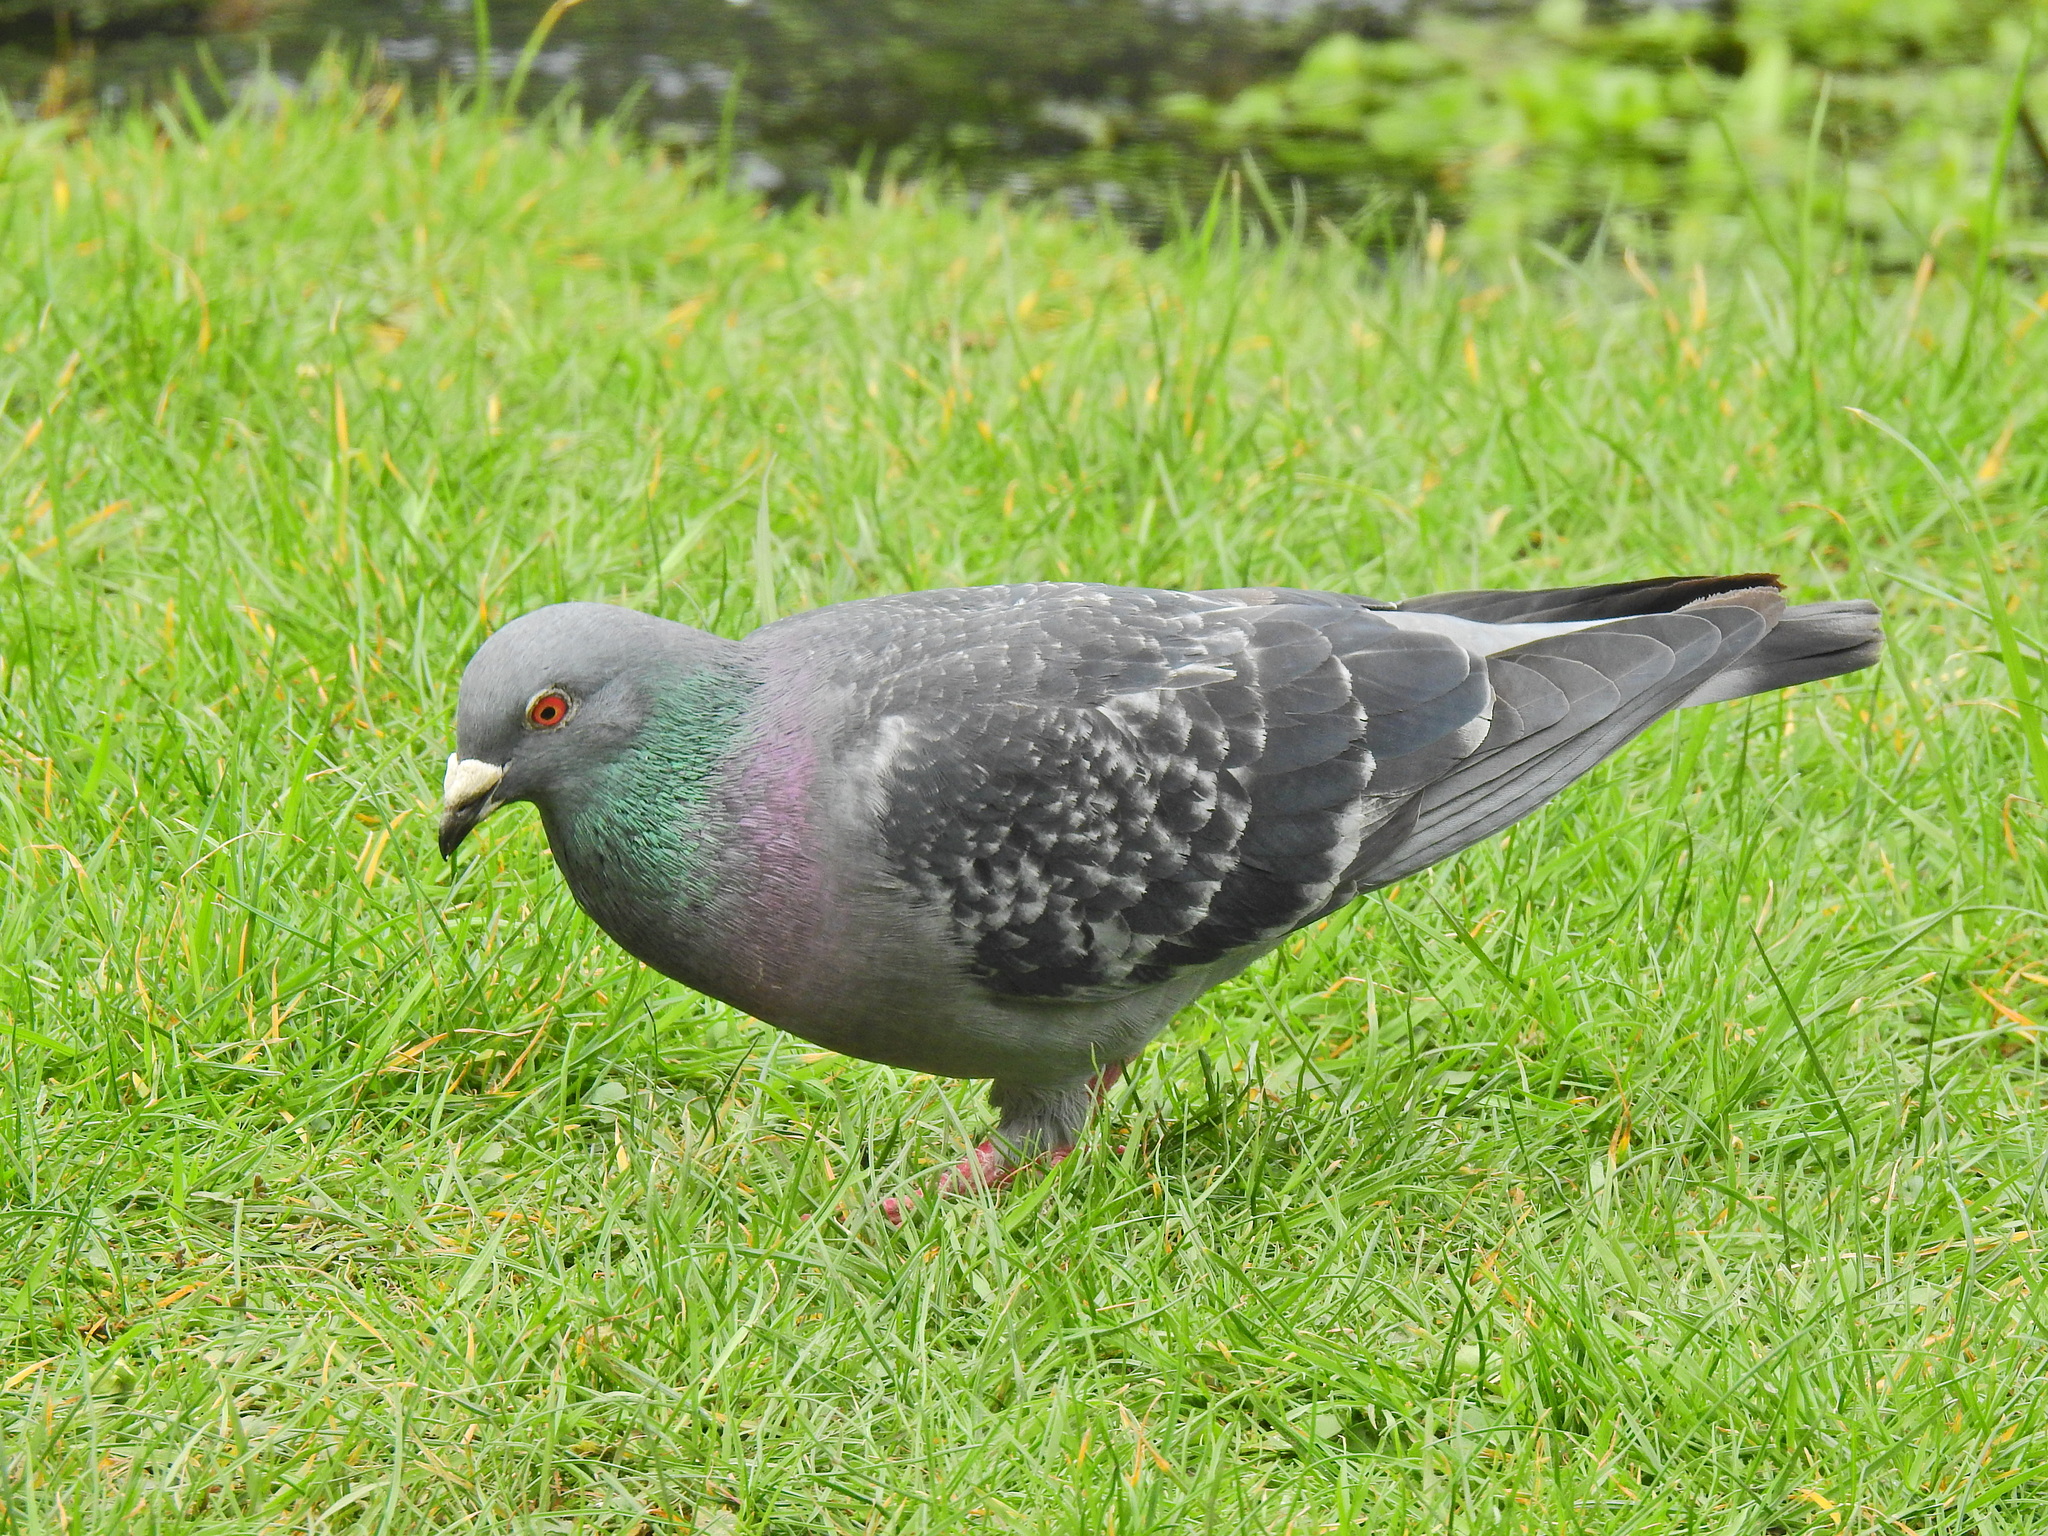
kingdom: Animalia
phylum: Chordata
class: Aves
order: Columbiformes
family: Columbidae
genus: Columba
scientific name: Columba livia
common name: Rock pigeon
